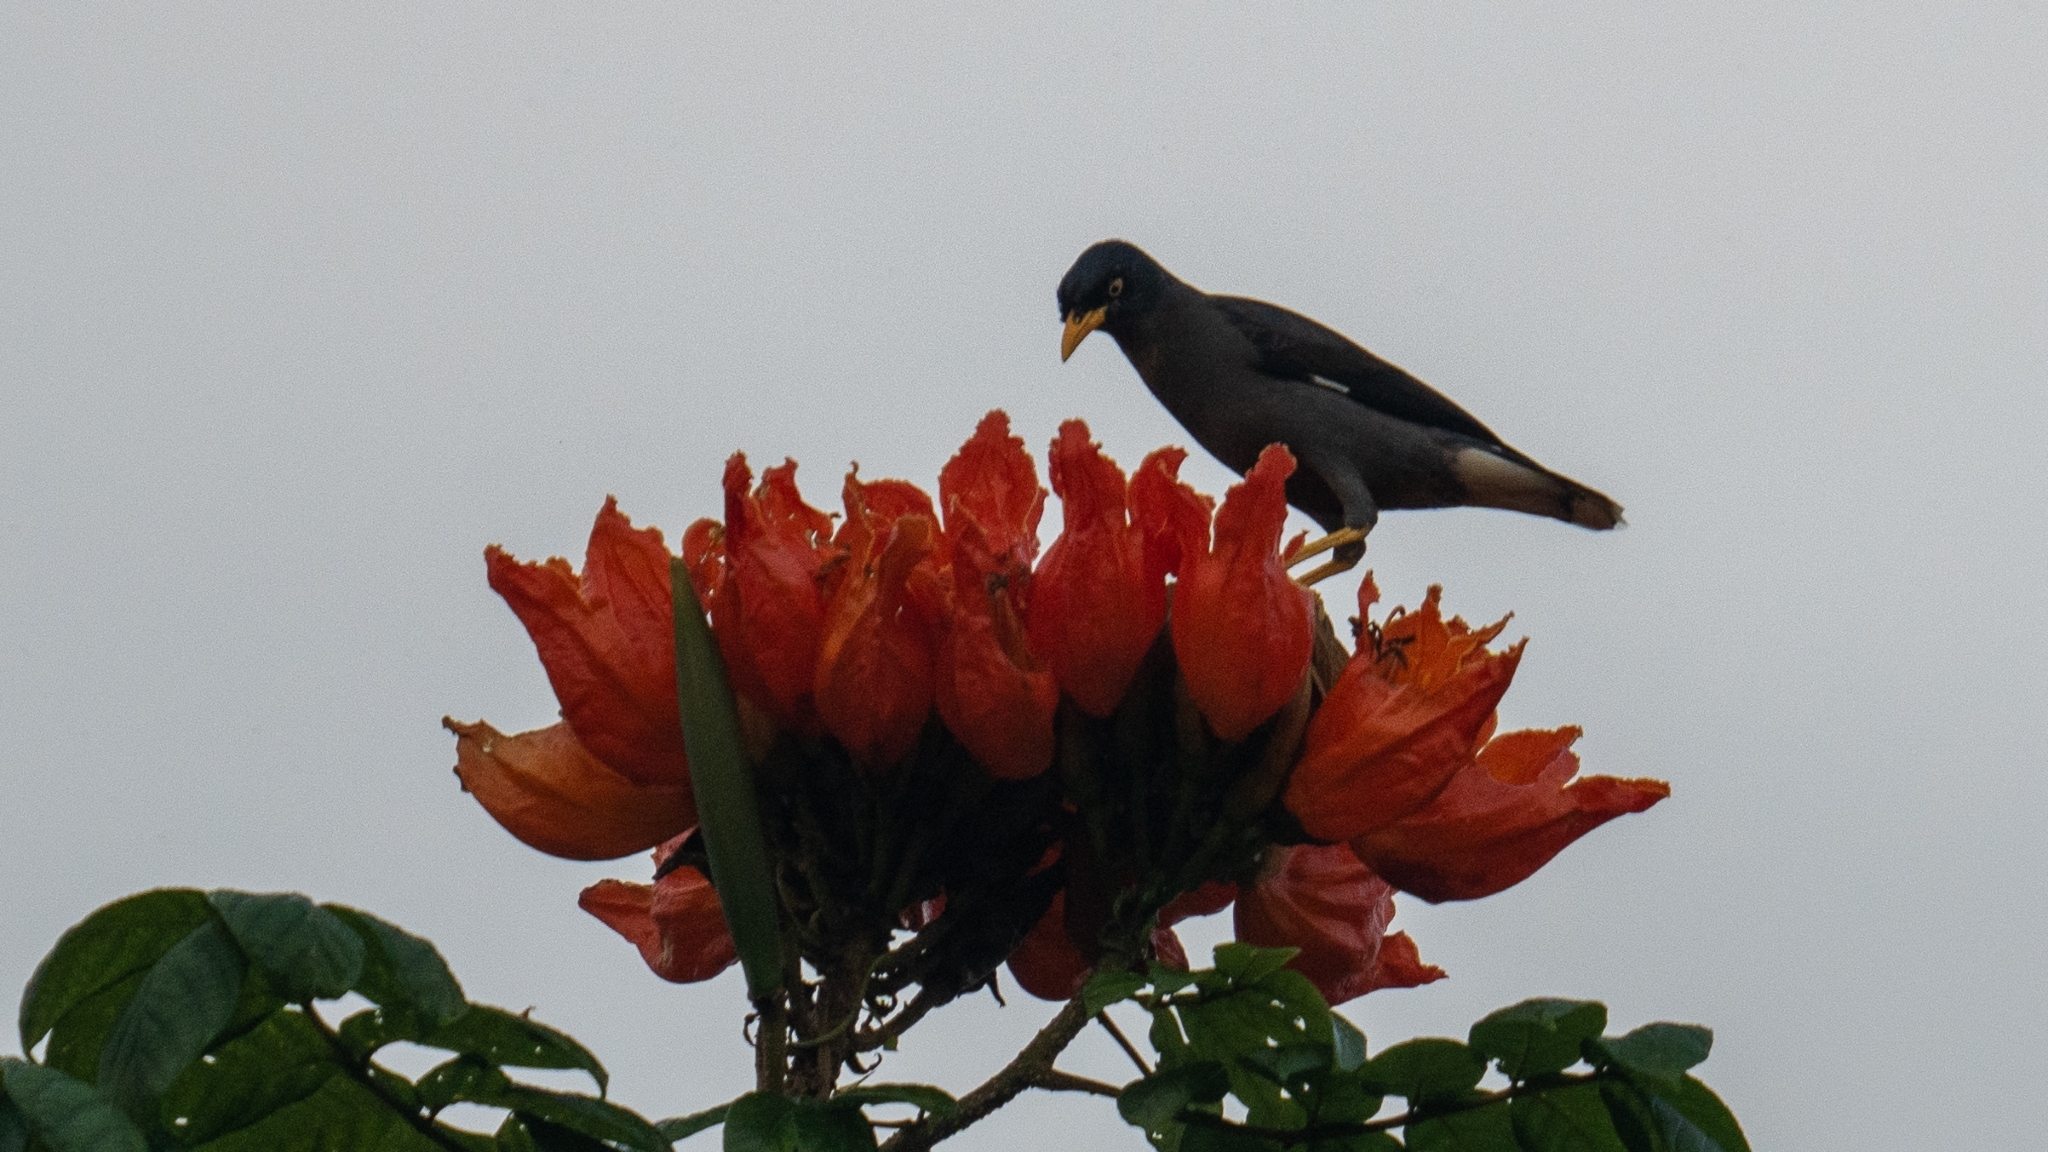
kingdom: Animalia
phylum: Chordata
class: Aves
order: Passeriformes
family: Sturnidae
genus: Acridotheres
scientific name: Acridotheres javanicus
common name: Javan myna
